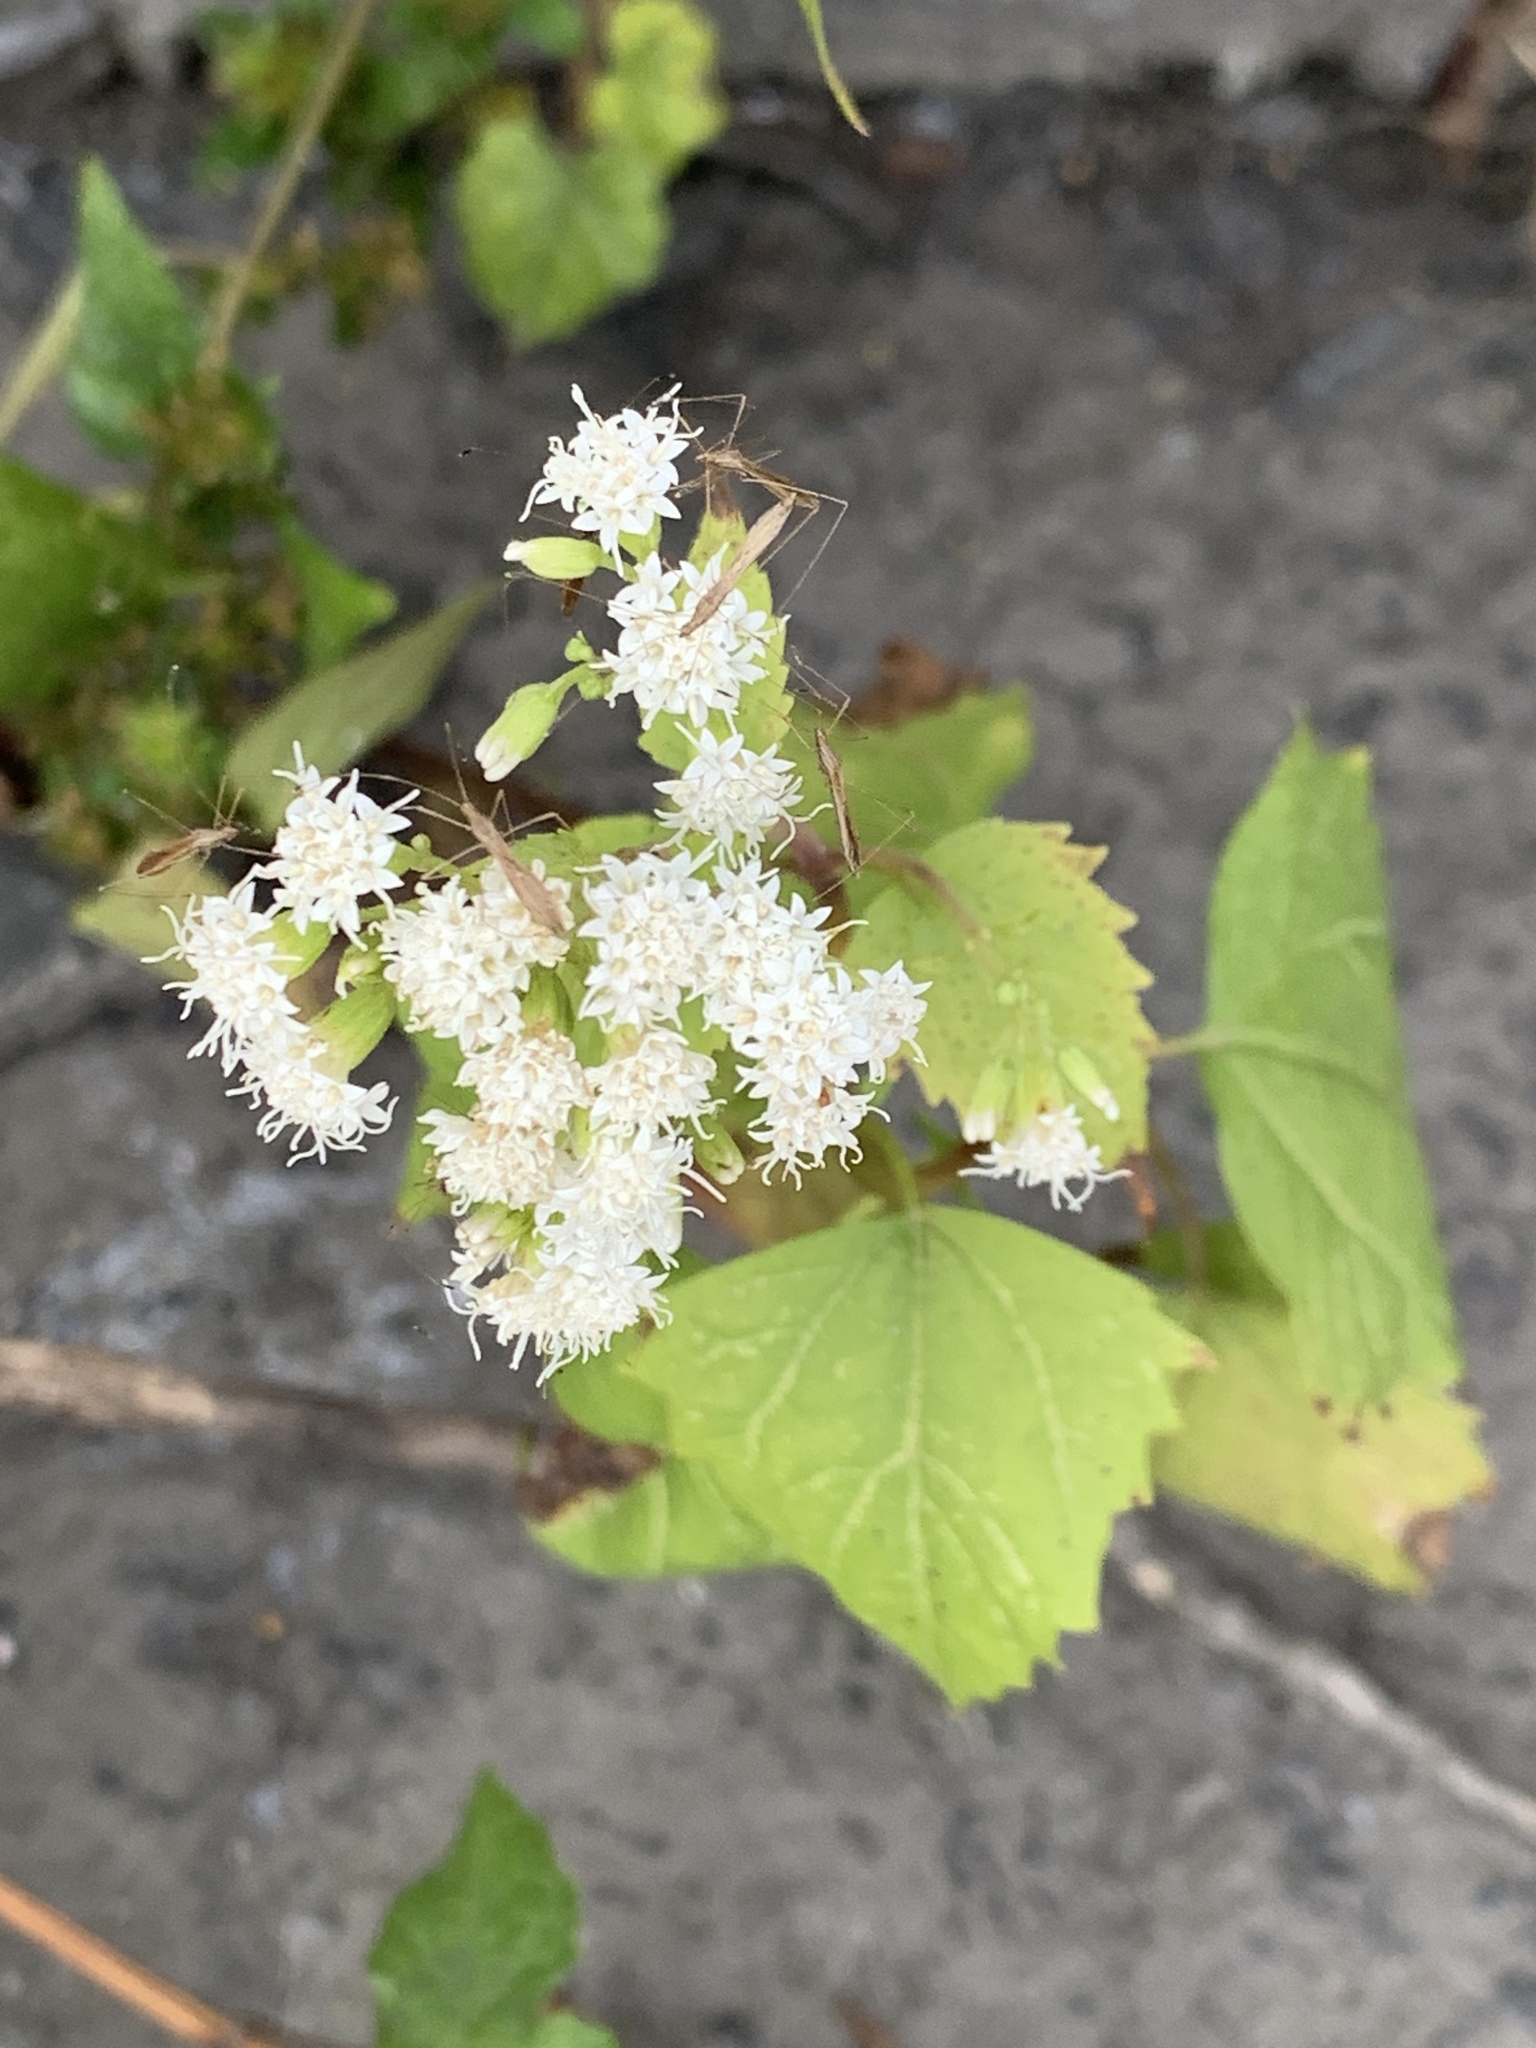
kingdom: Plantae
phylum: Tracheophyta
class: Magnoliopsida
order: Asterales
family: Asteraceae
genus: Ageratina
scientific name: Ageratina altissima
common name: White snakeroot
